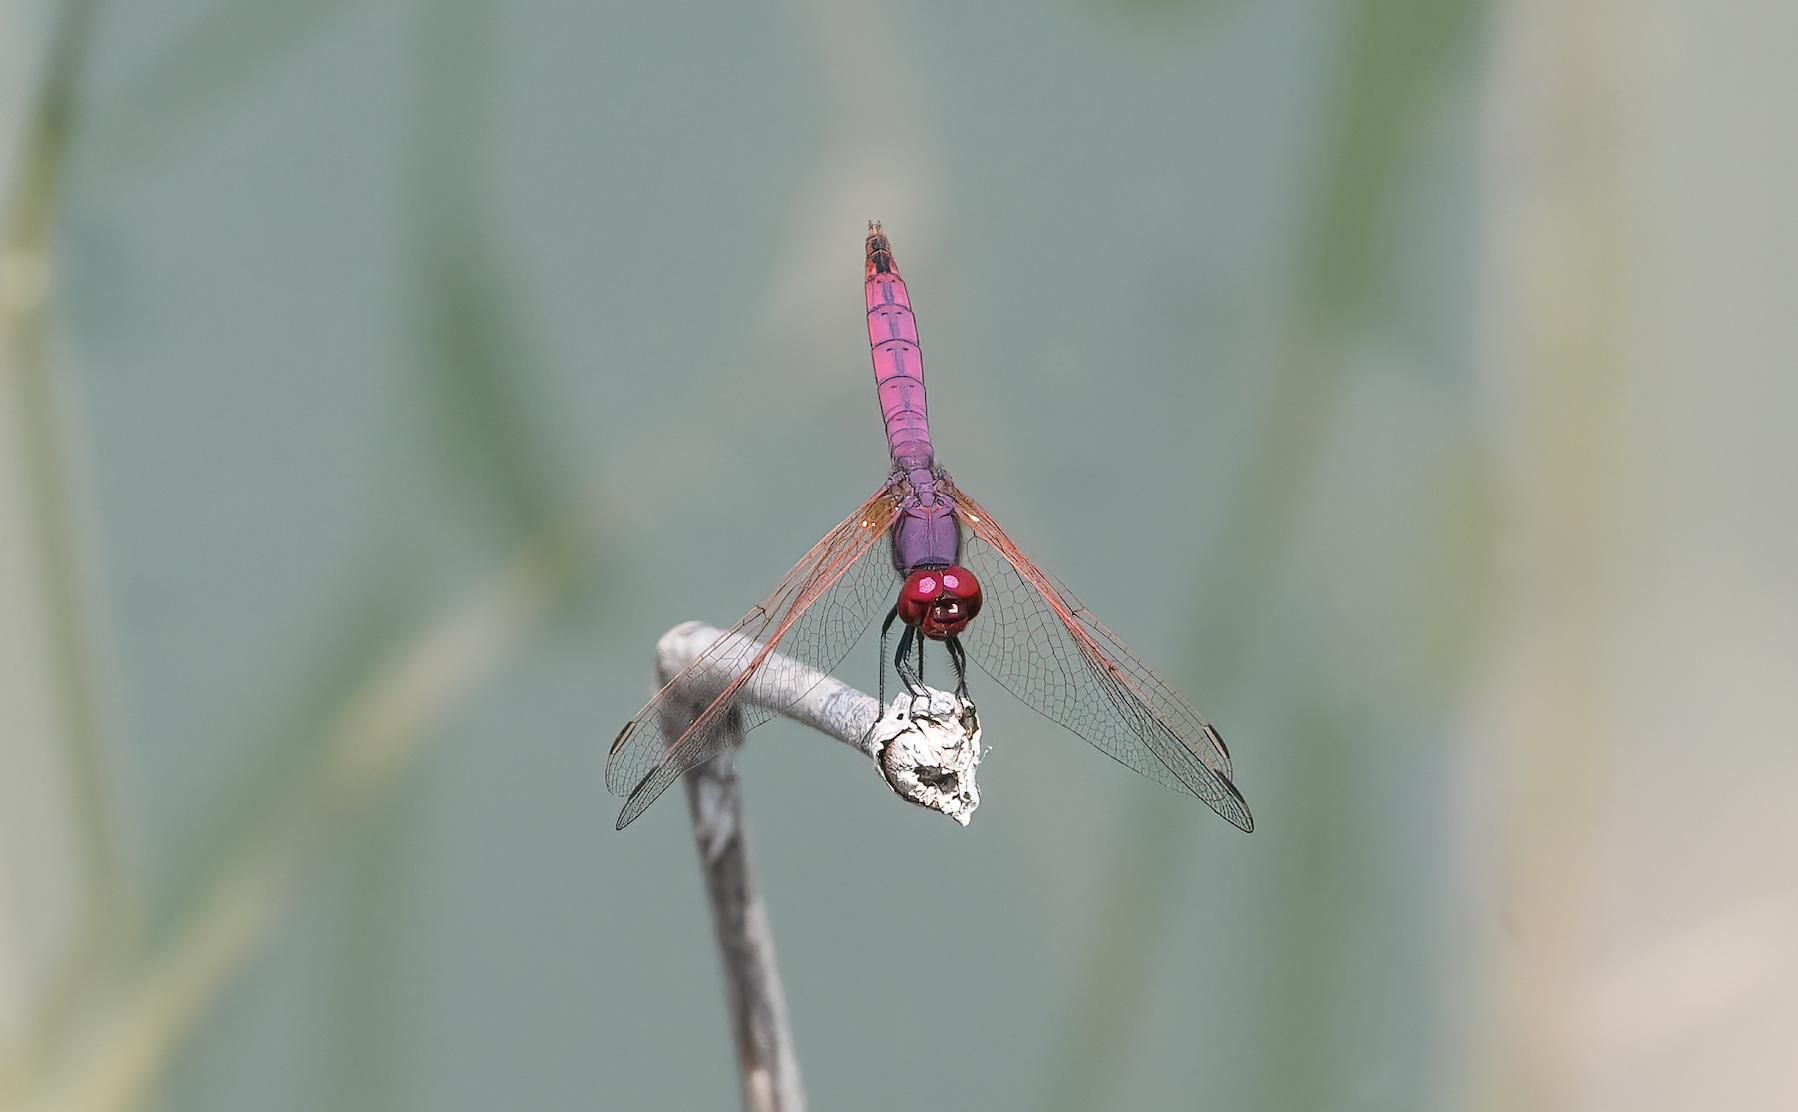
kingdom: Animalia
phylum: Arthropoda
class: Insecta
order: Odonata
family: Libellulidae
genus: Trithemis
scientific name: Trithemis annulata
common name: Violet dropwing
